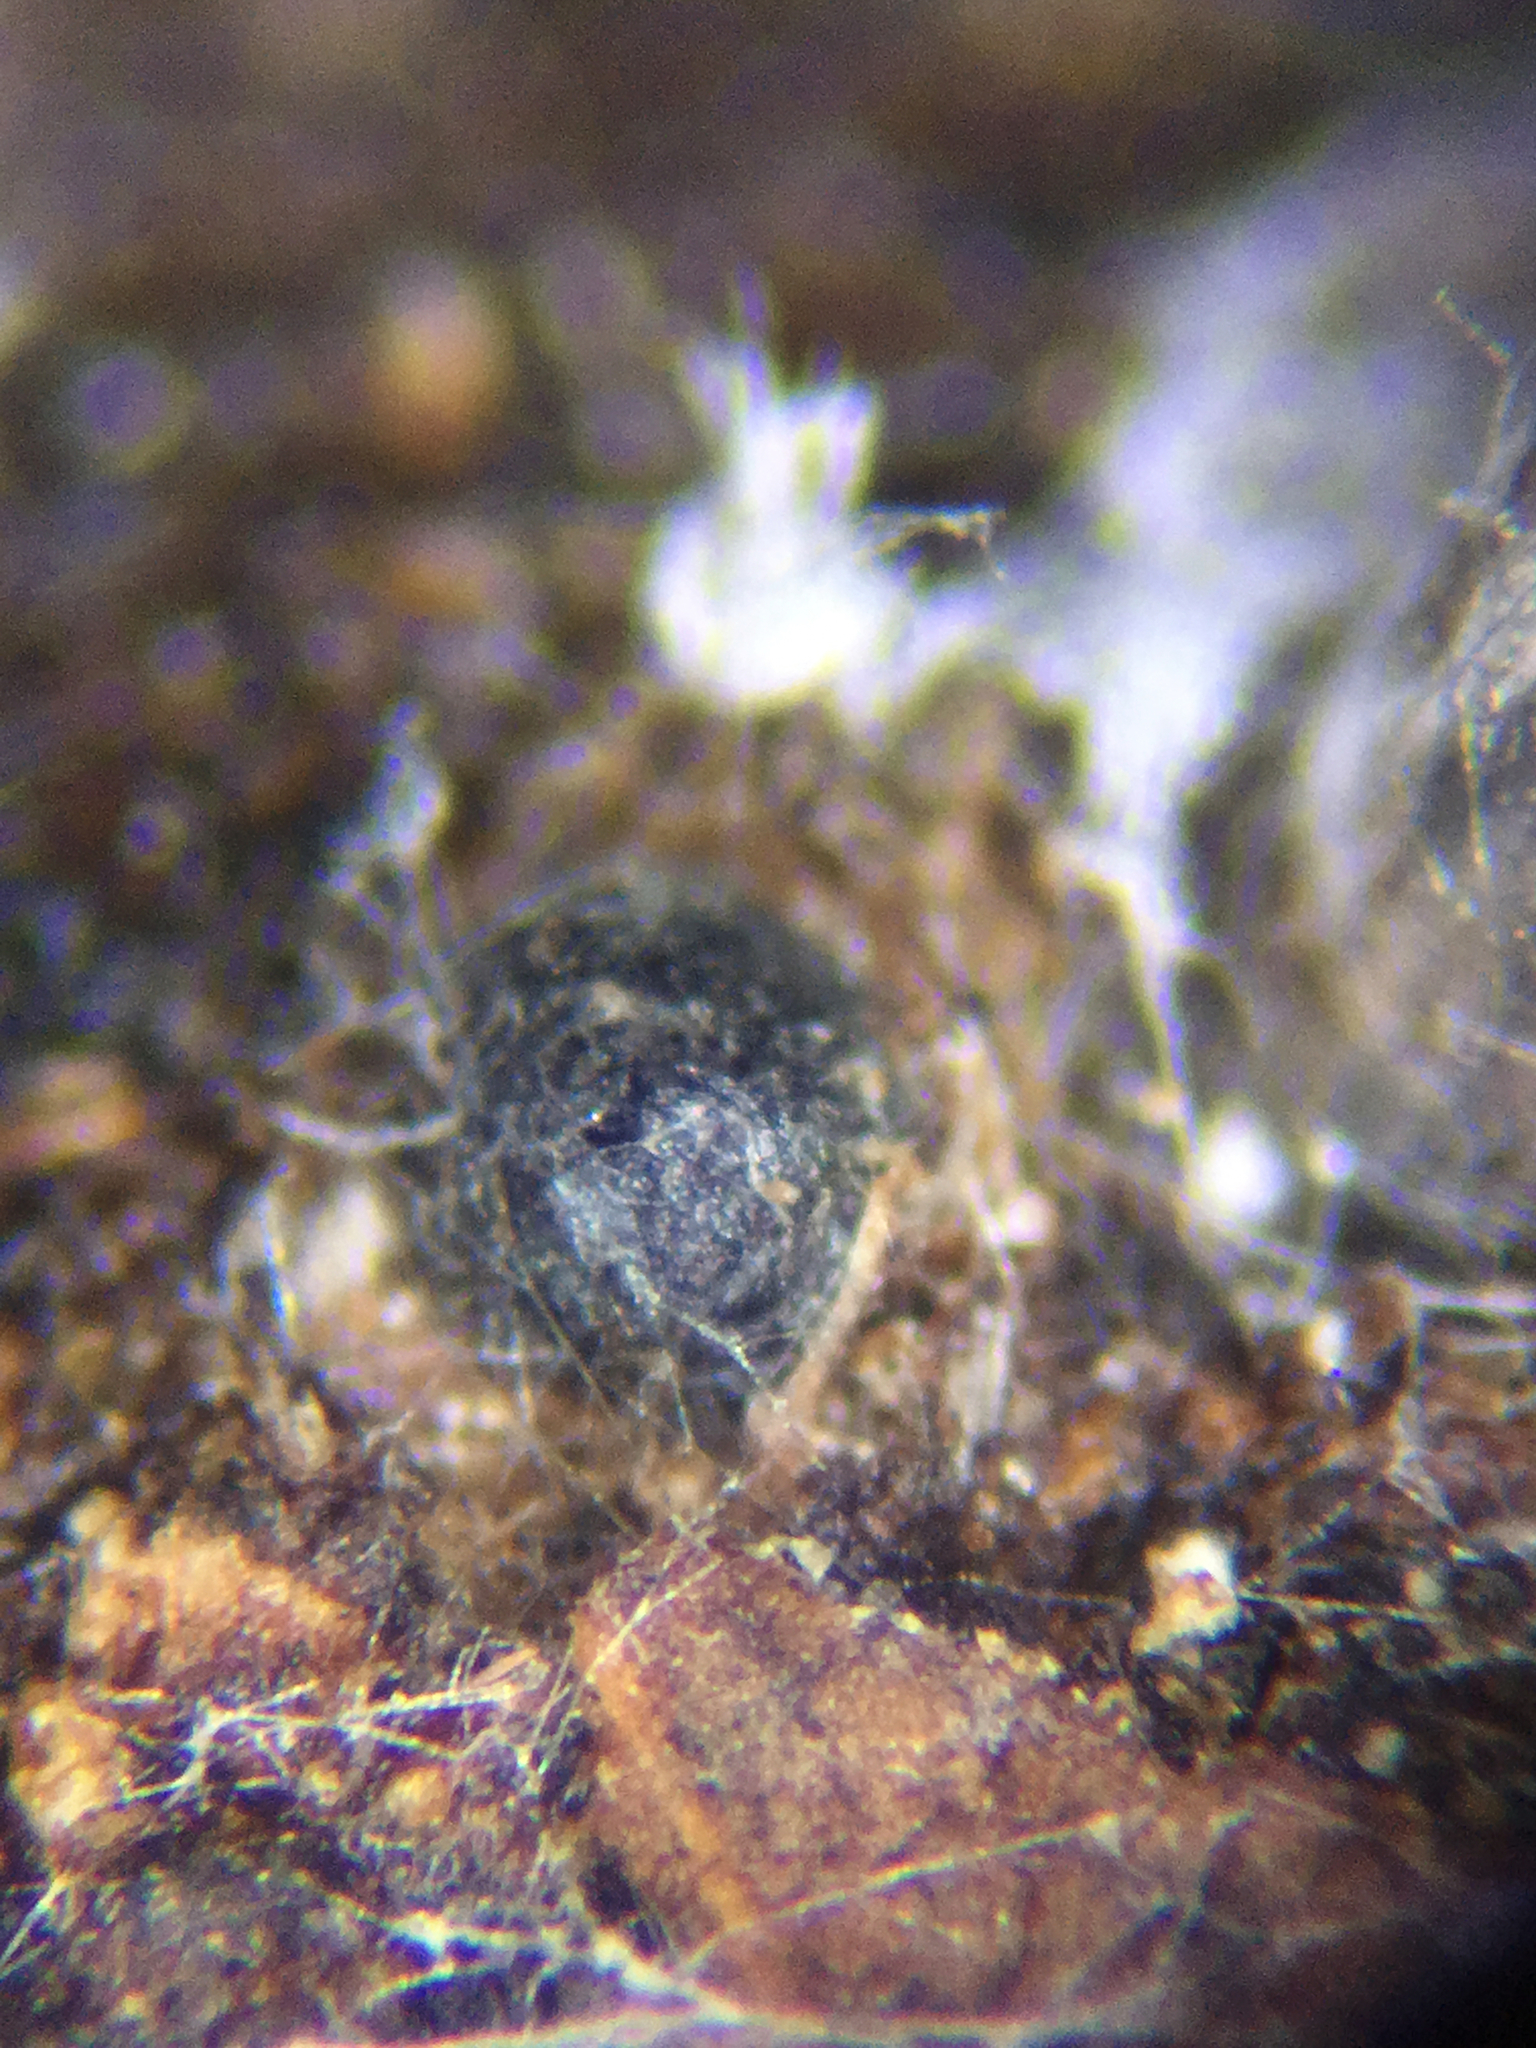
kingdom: Fungi
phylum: Ascomycota
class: Dothideomycetes
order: Pleosporales
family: Sporormiaceae
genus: Sporormiella
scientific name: Sporormiella heptamera
